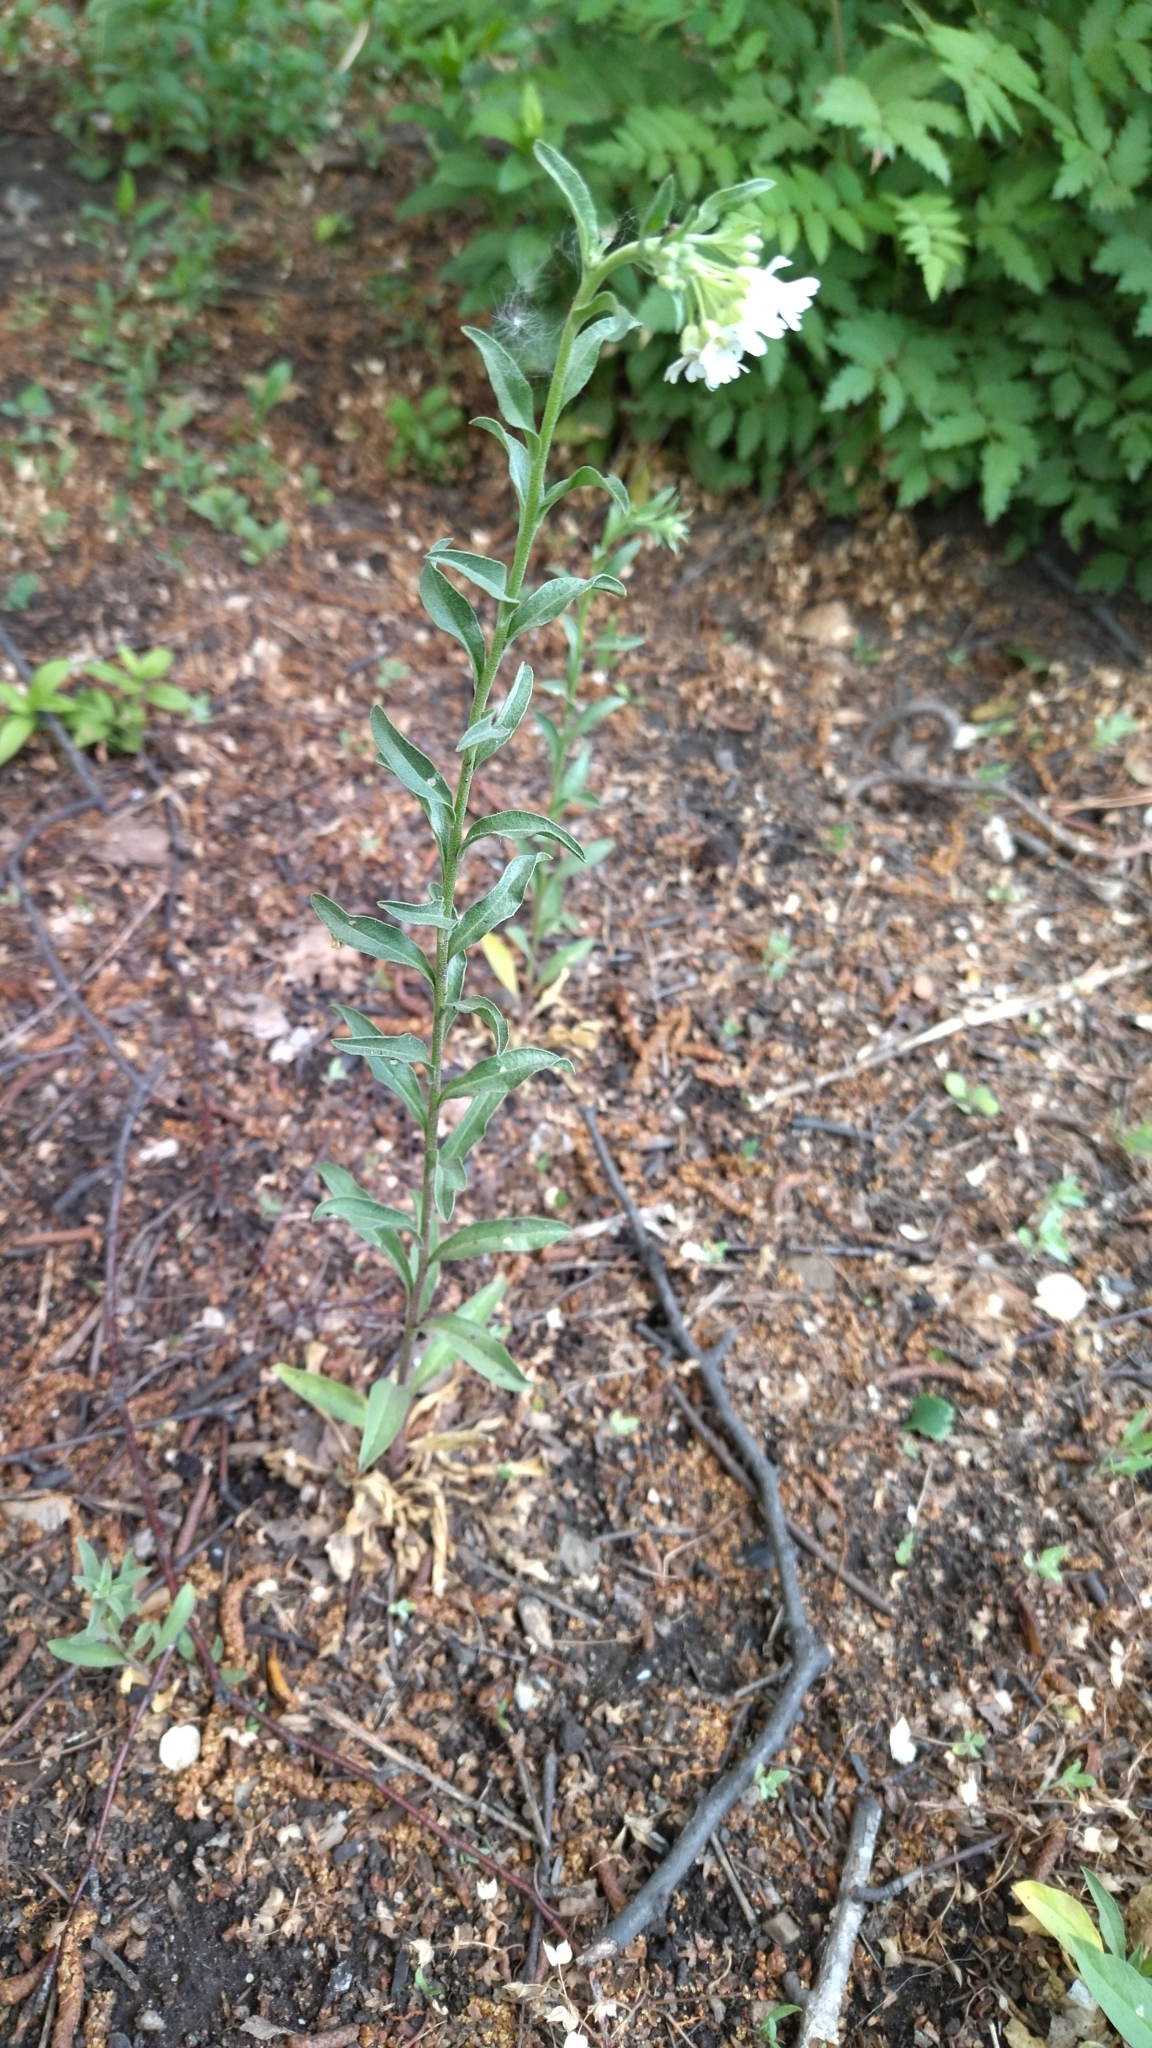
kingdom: Plantae
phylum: Tracheophyta
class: Magnoliopsida
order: Brassicales
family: Brassicaceae
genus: Berteroa
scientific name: Berteroa incana
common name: Hoary alison
